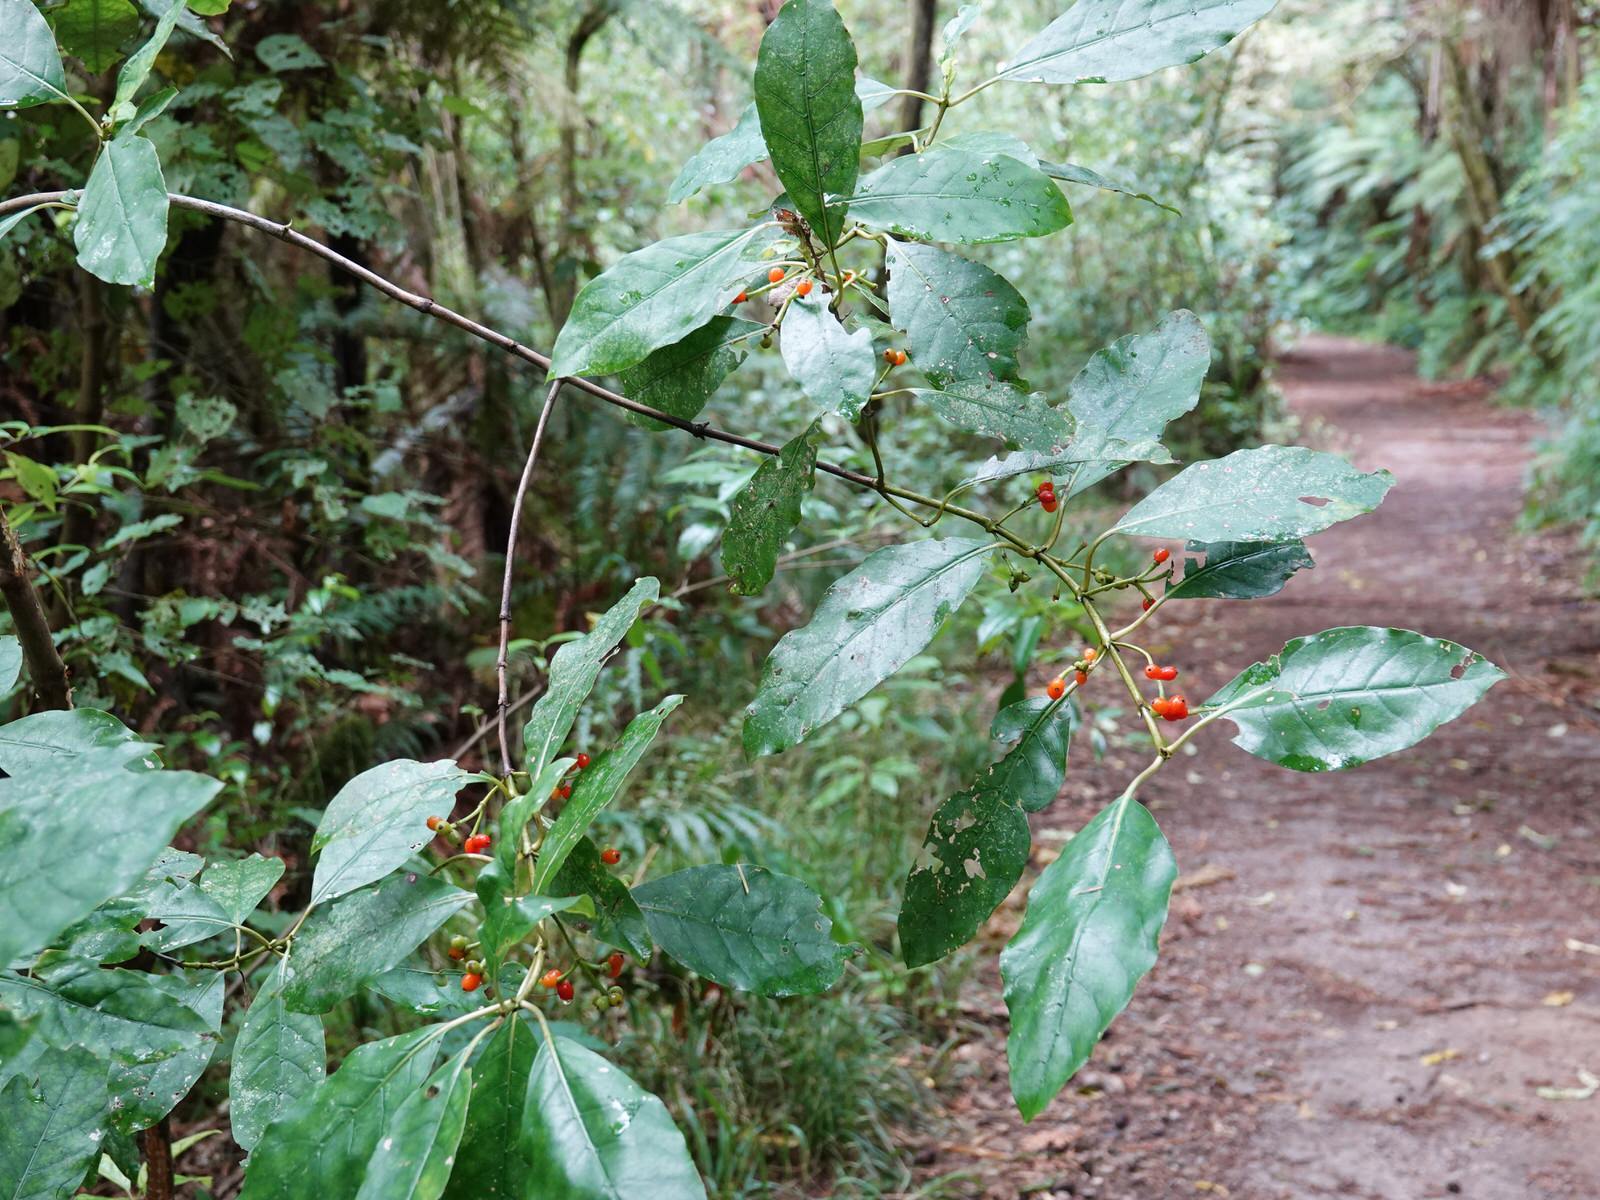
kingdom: Plantae
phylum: Tracheophyta
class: Magnoliopsida
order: Gentianales
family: Rubiaceae
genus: Coprosma
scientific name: Coprosma autumnalis
